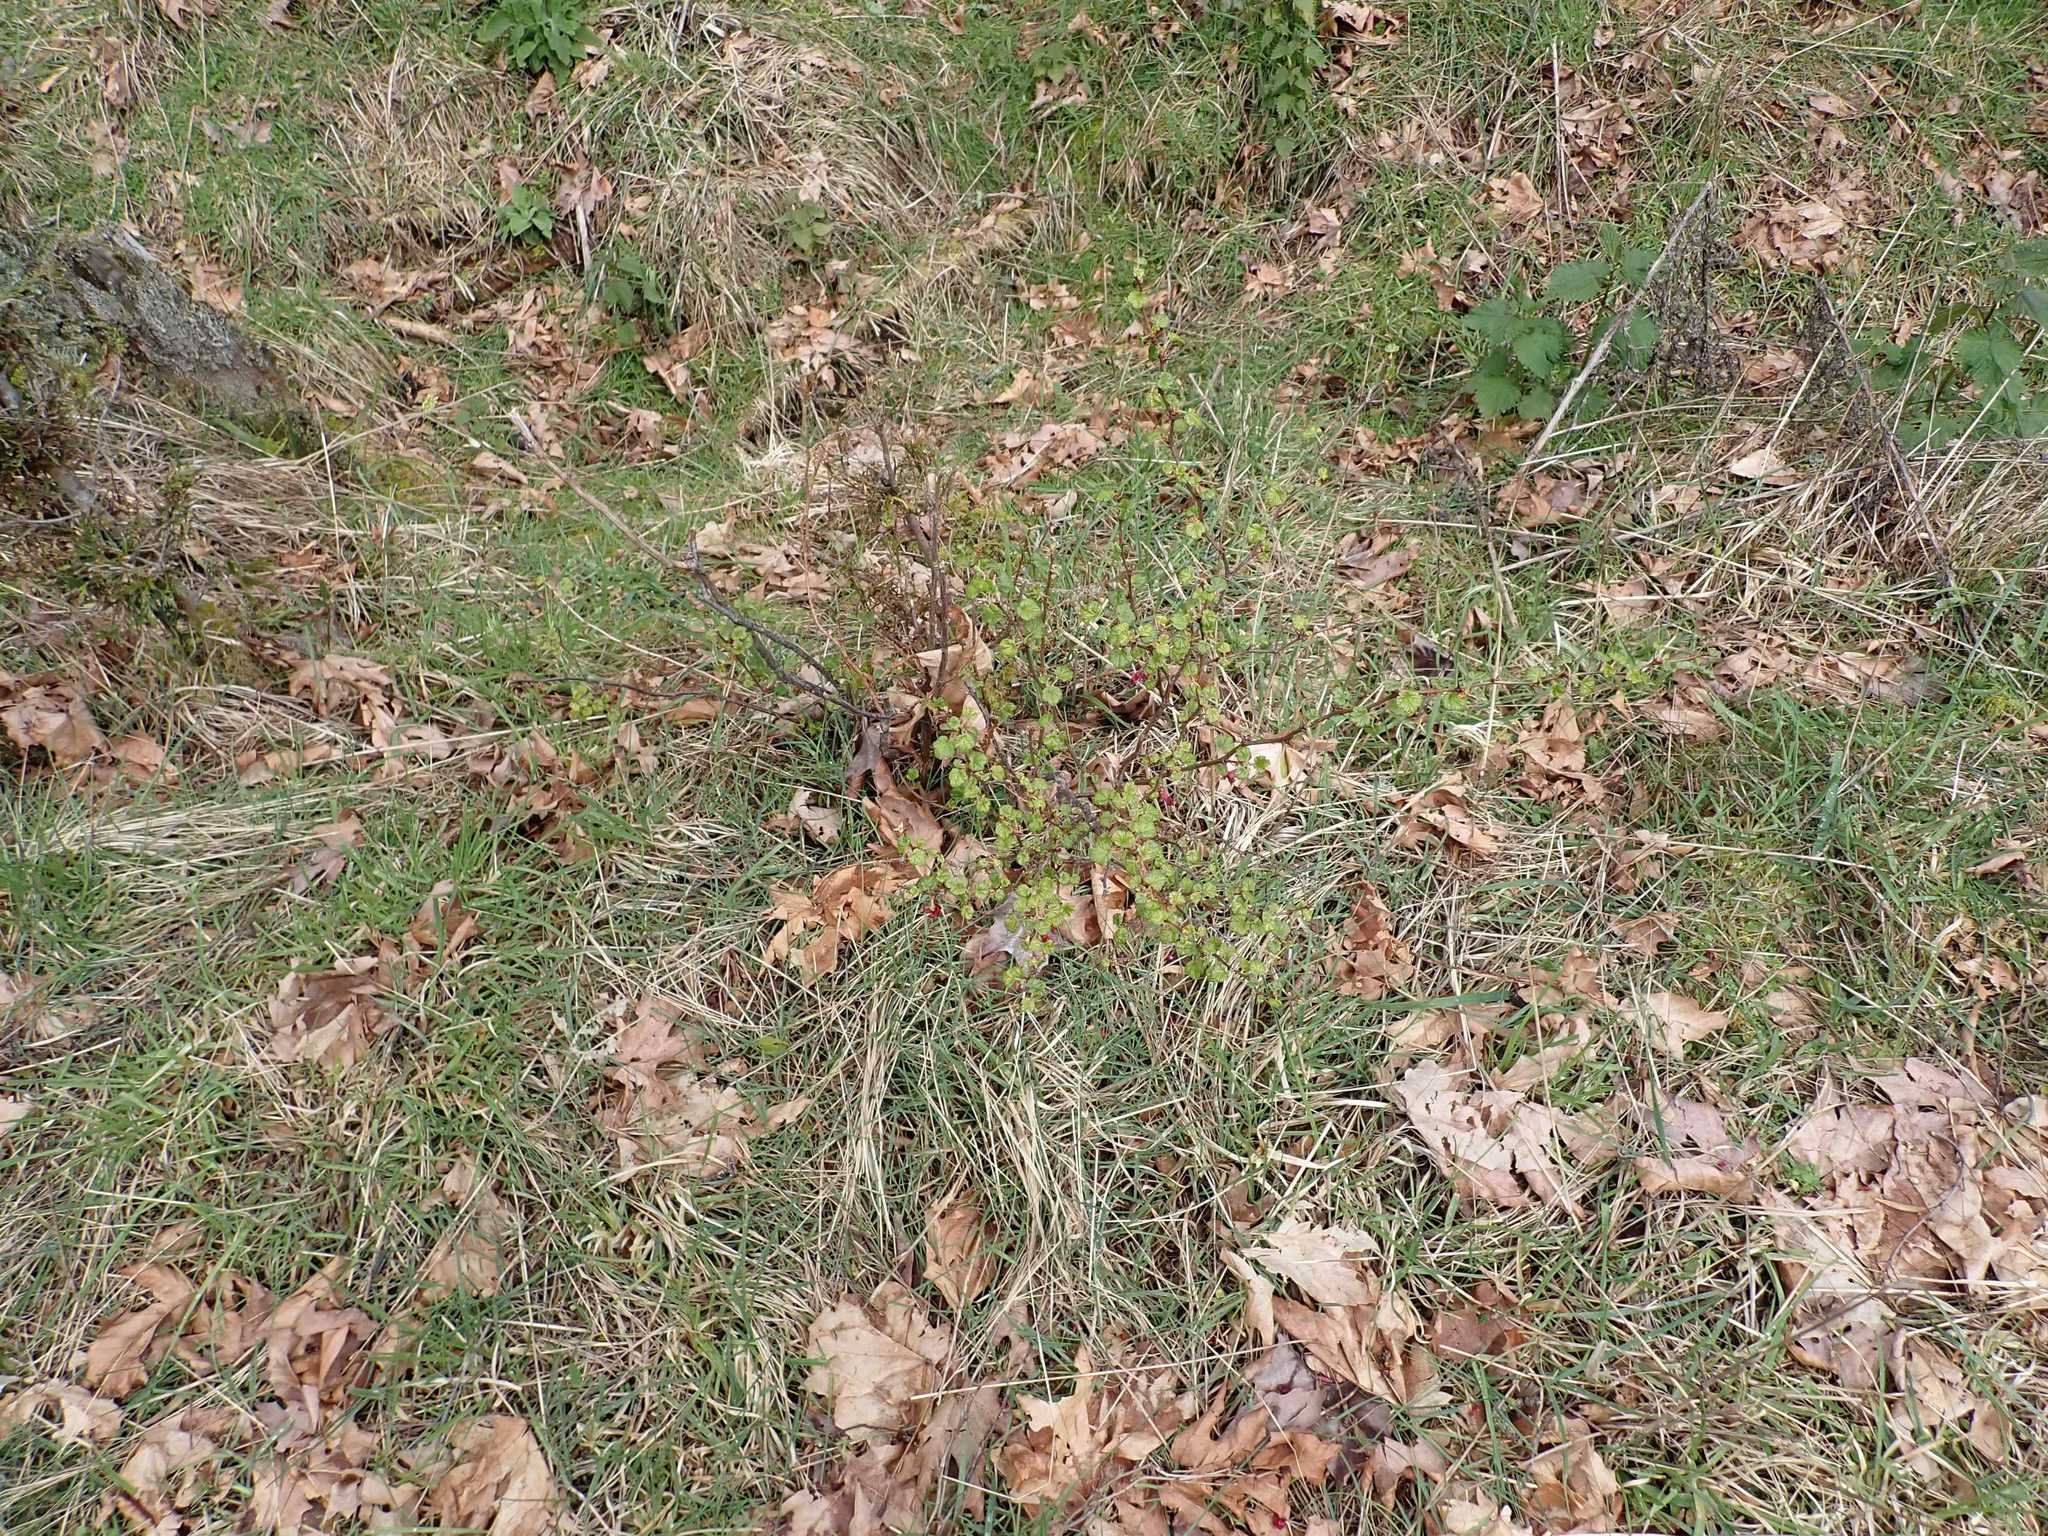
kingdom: Plantae
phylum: Tracheophyta
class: Magnoliopsida
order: Saxifragales
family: Grossulariaceae
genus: Ribes
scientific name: Ribes lobbii
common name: Gummy gooseberry
